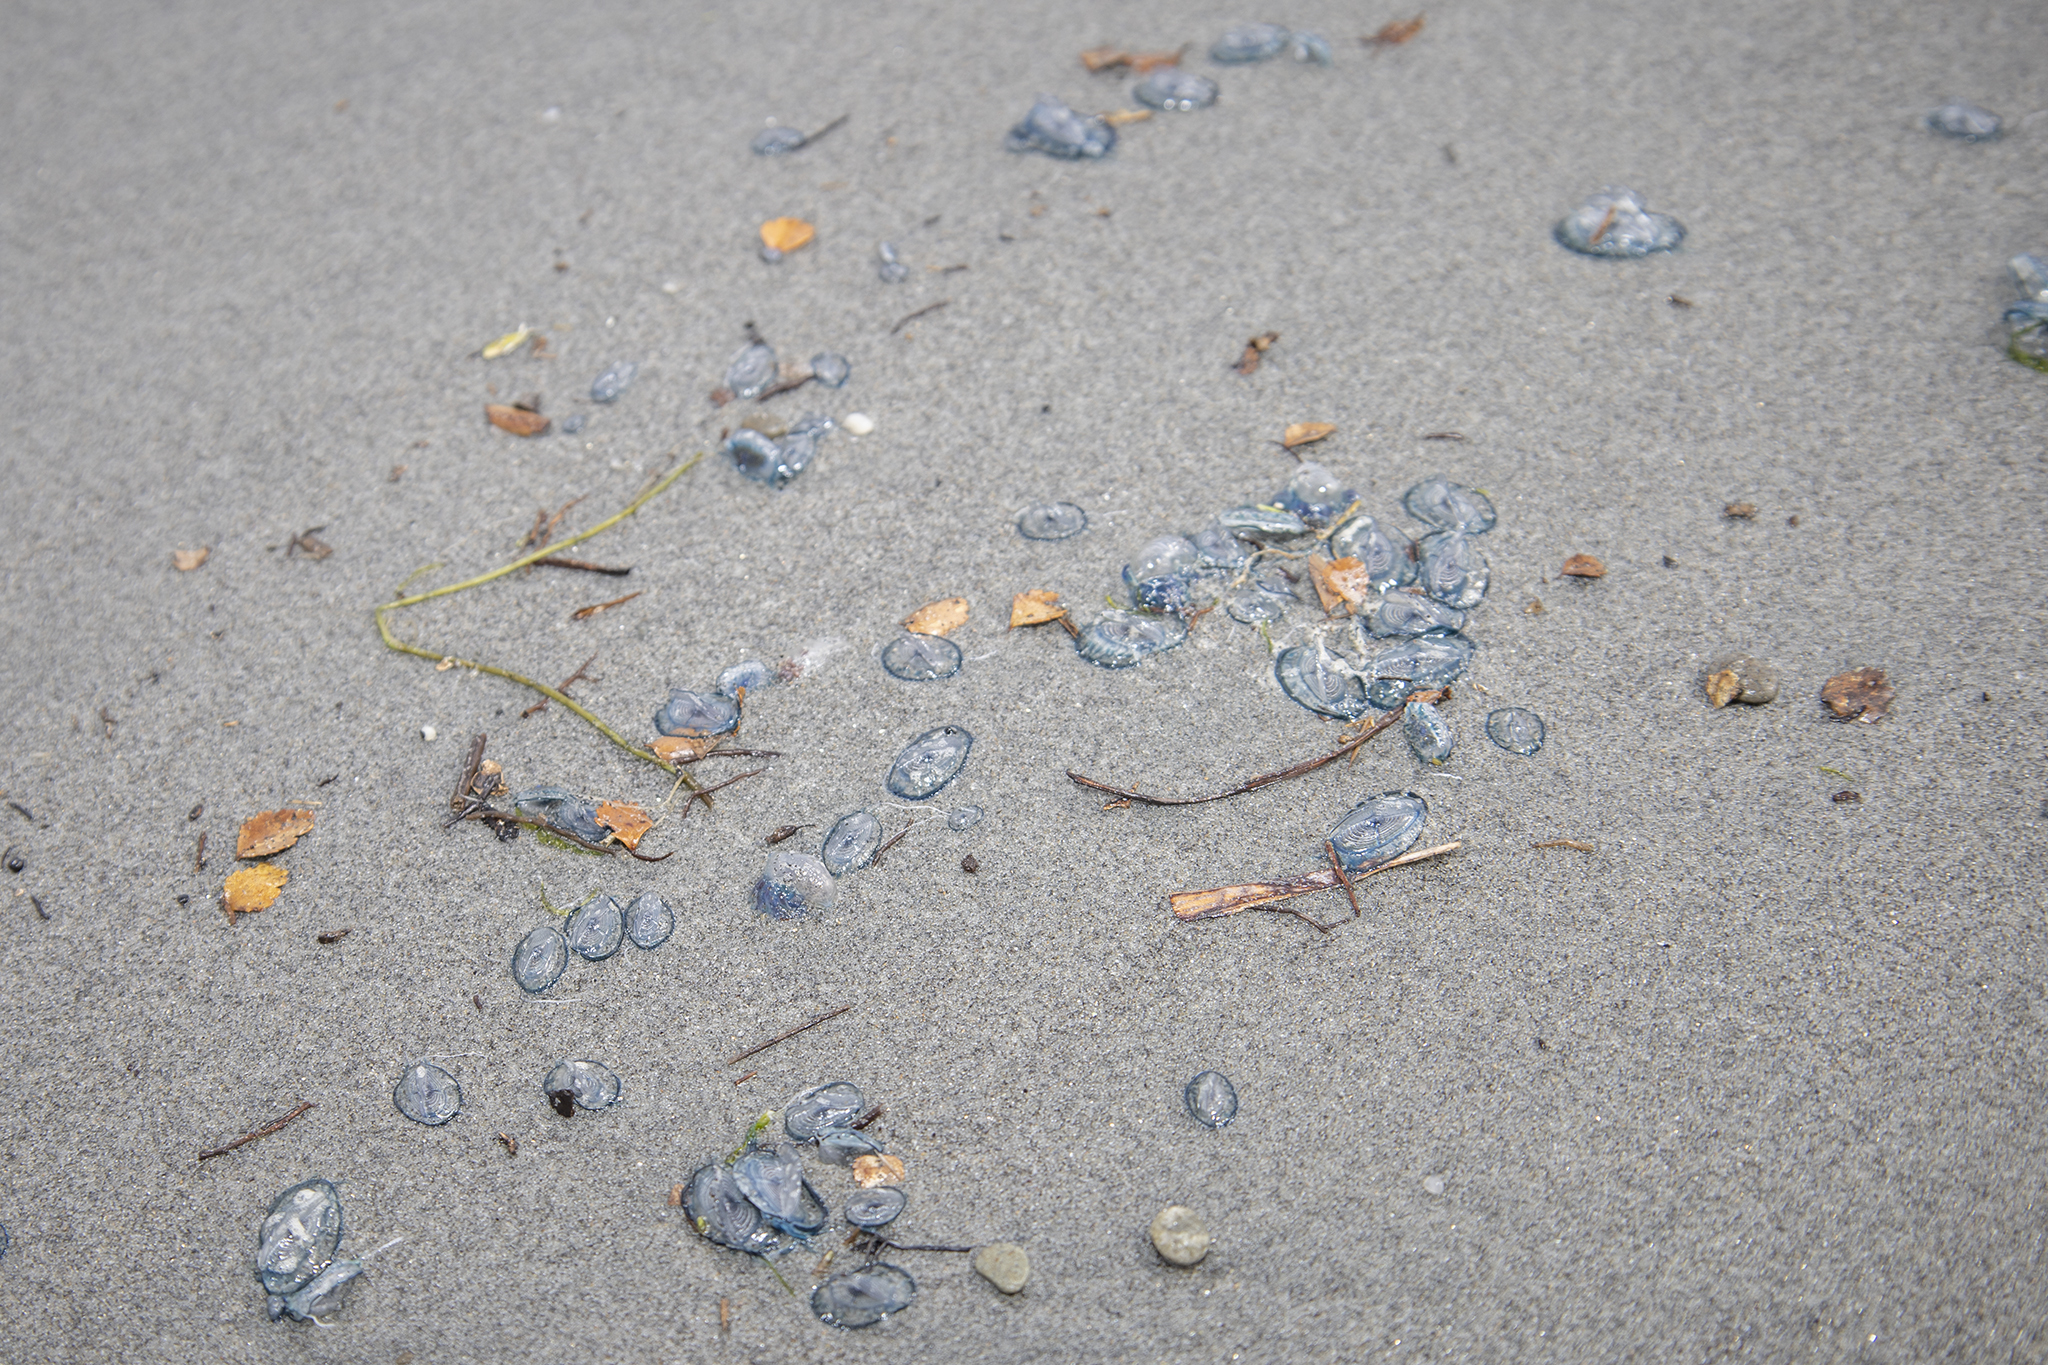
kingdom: Animalia
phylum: Cnidaria
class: Hydrozoa
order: Anthoathecata
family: Porpitidae
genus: Velella
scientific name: Velella velella
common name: By-the-wind-sailor
